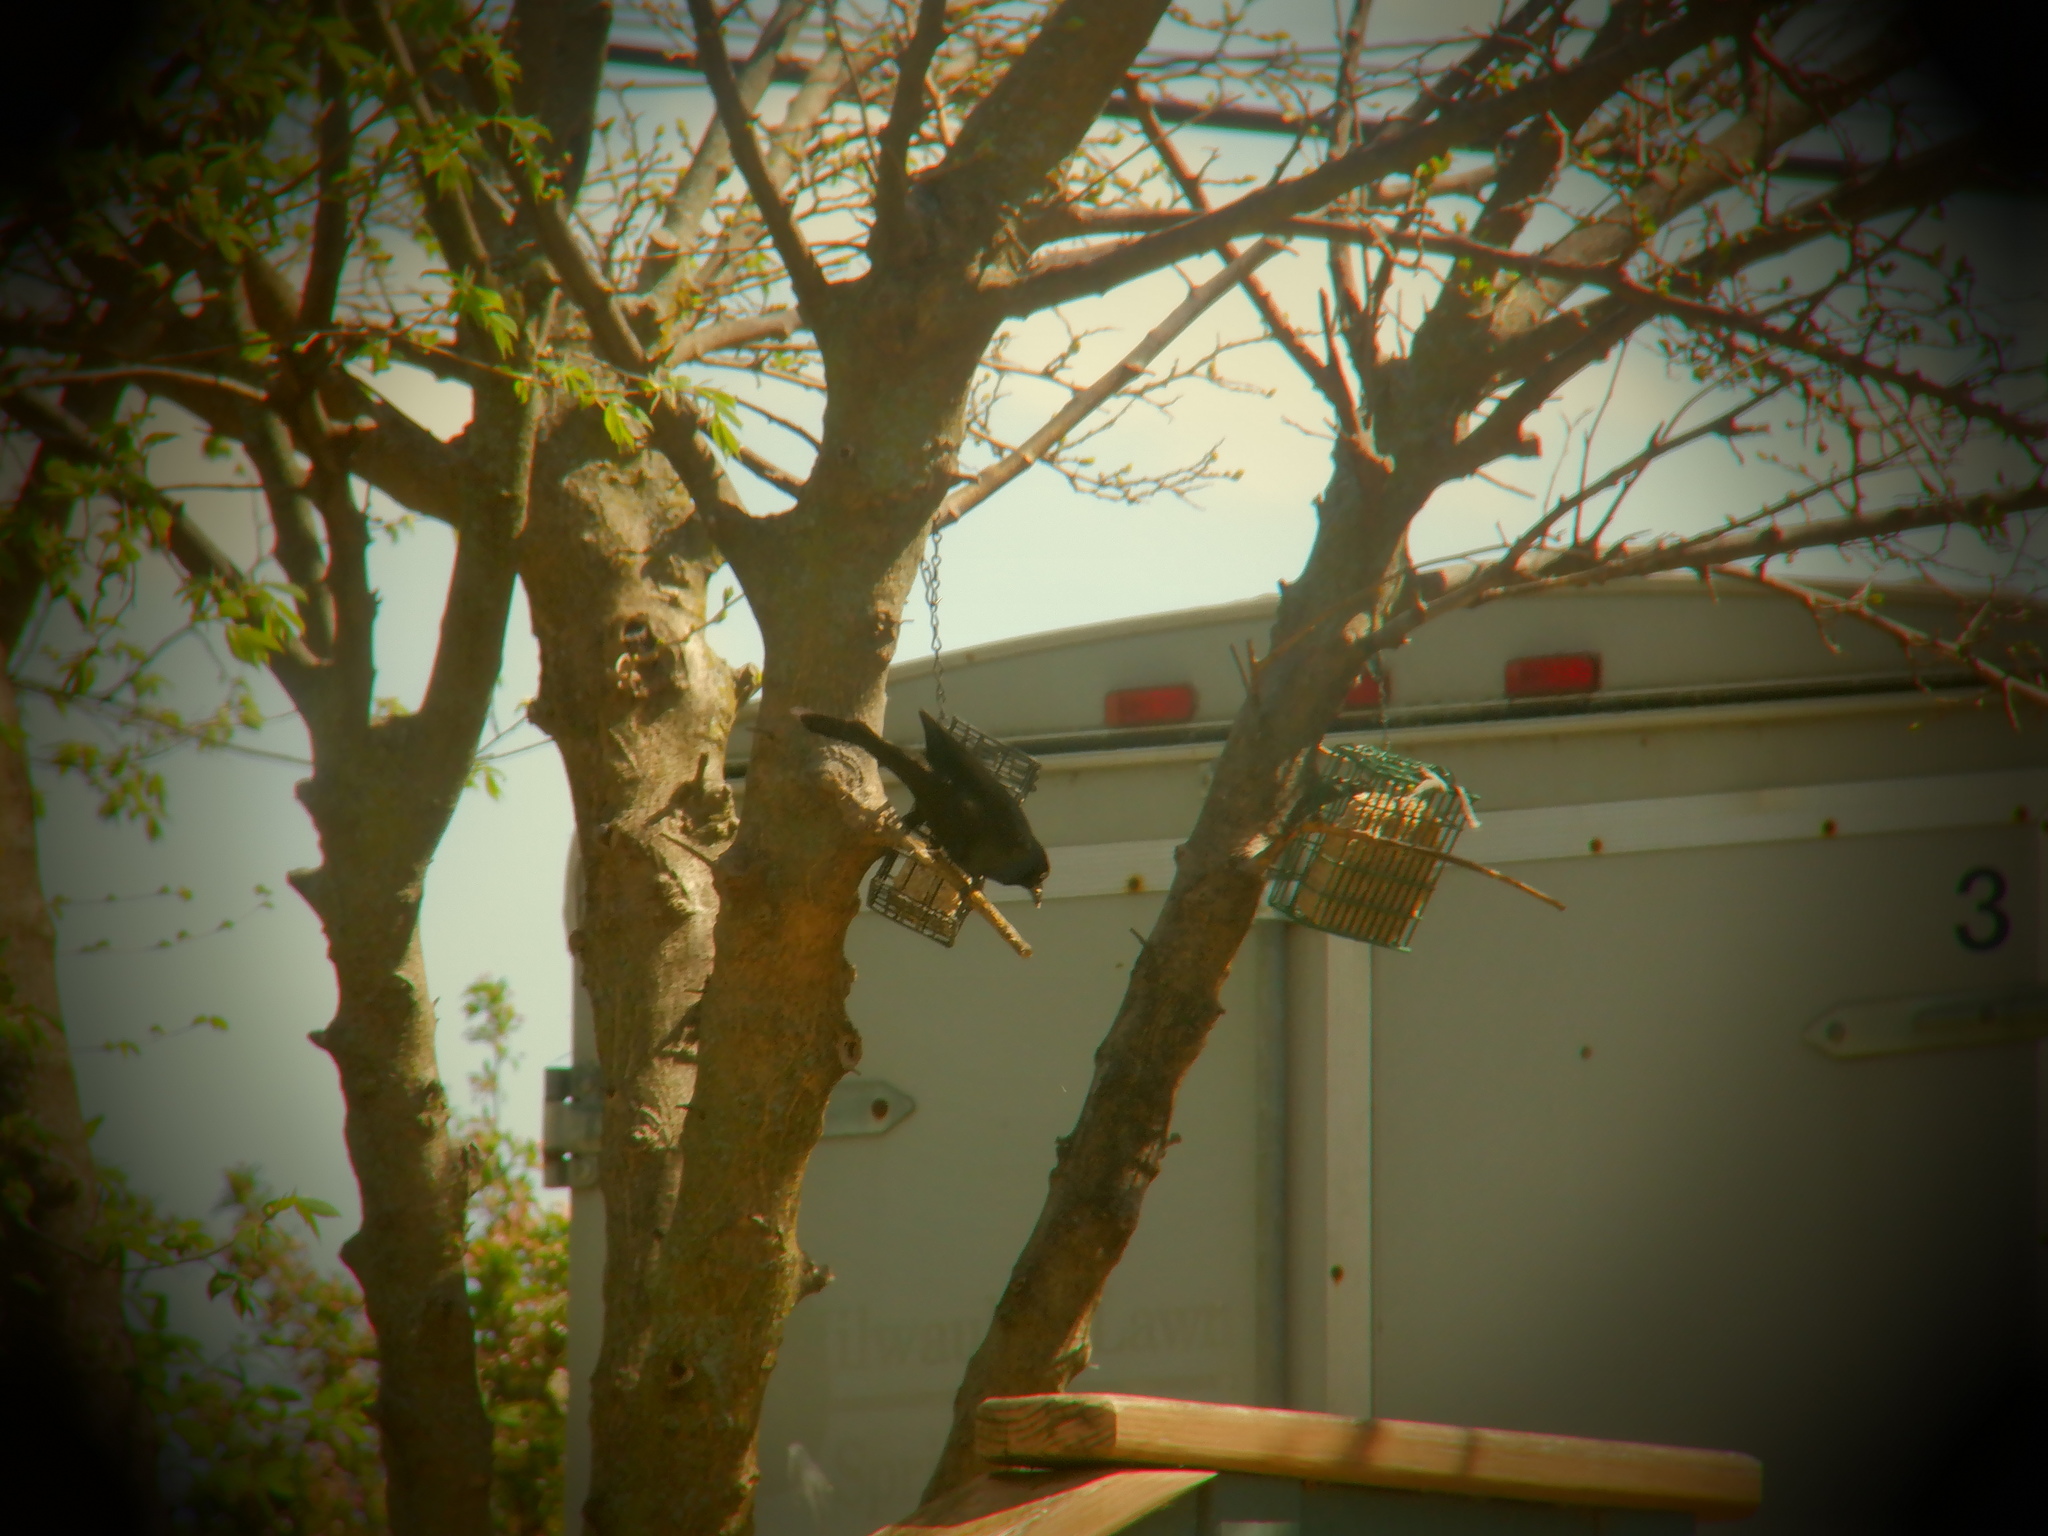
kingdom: Animalia
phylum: Chordata
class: Aves
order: Passeriformes
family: Icteridae
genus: Quiscalus
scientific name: Quiscalus quiscula
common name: Common grackle
